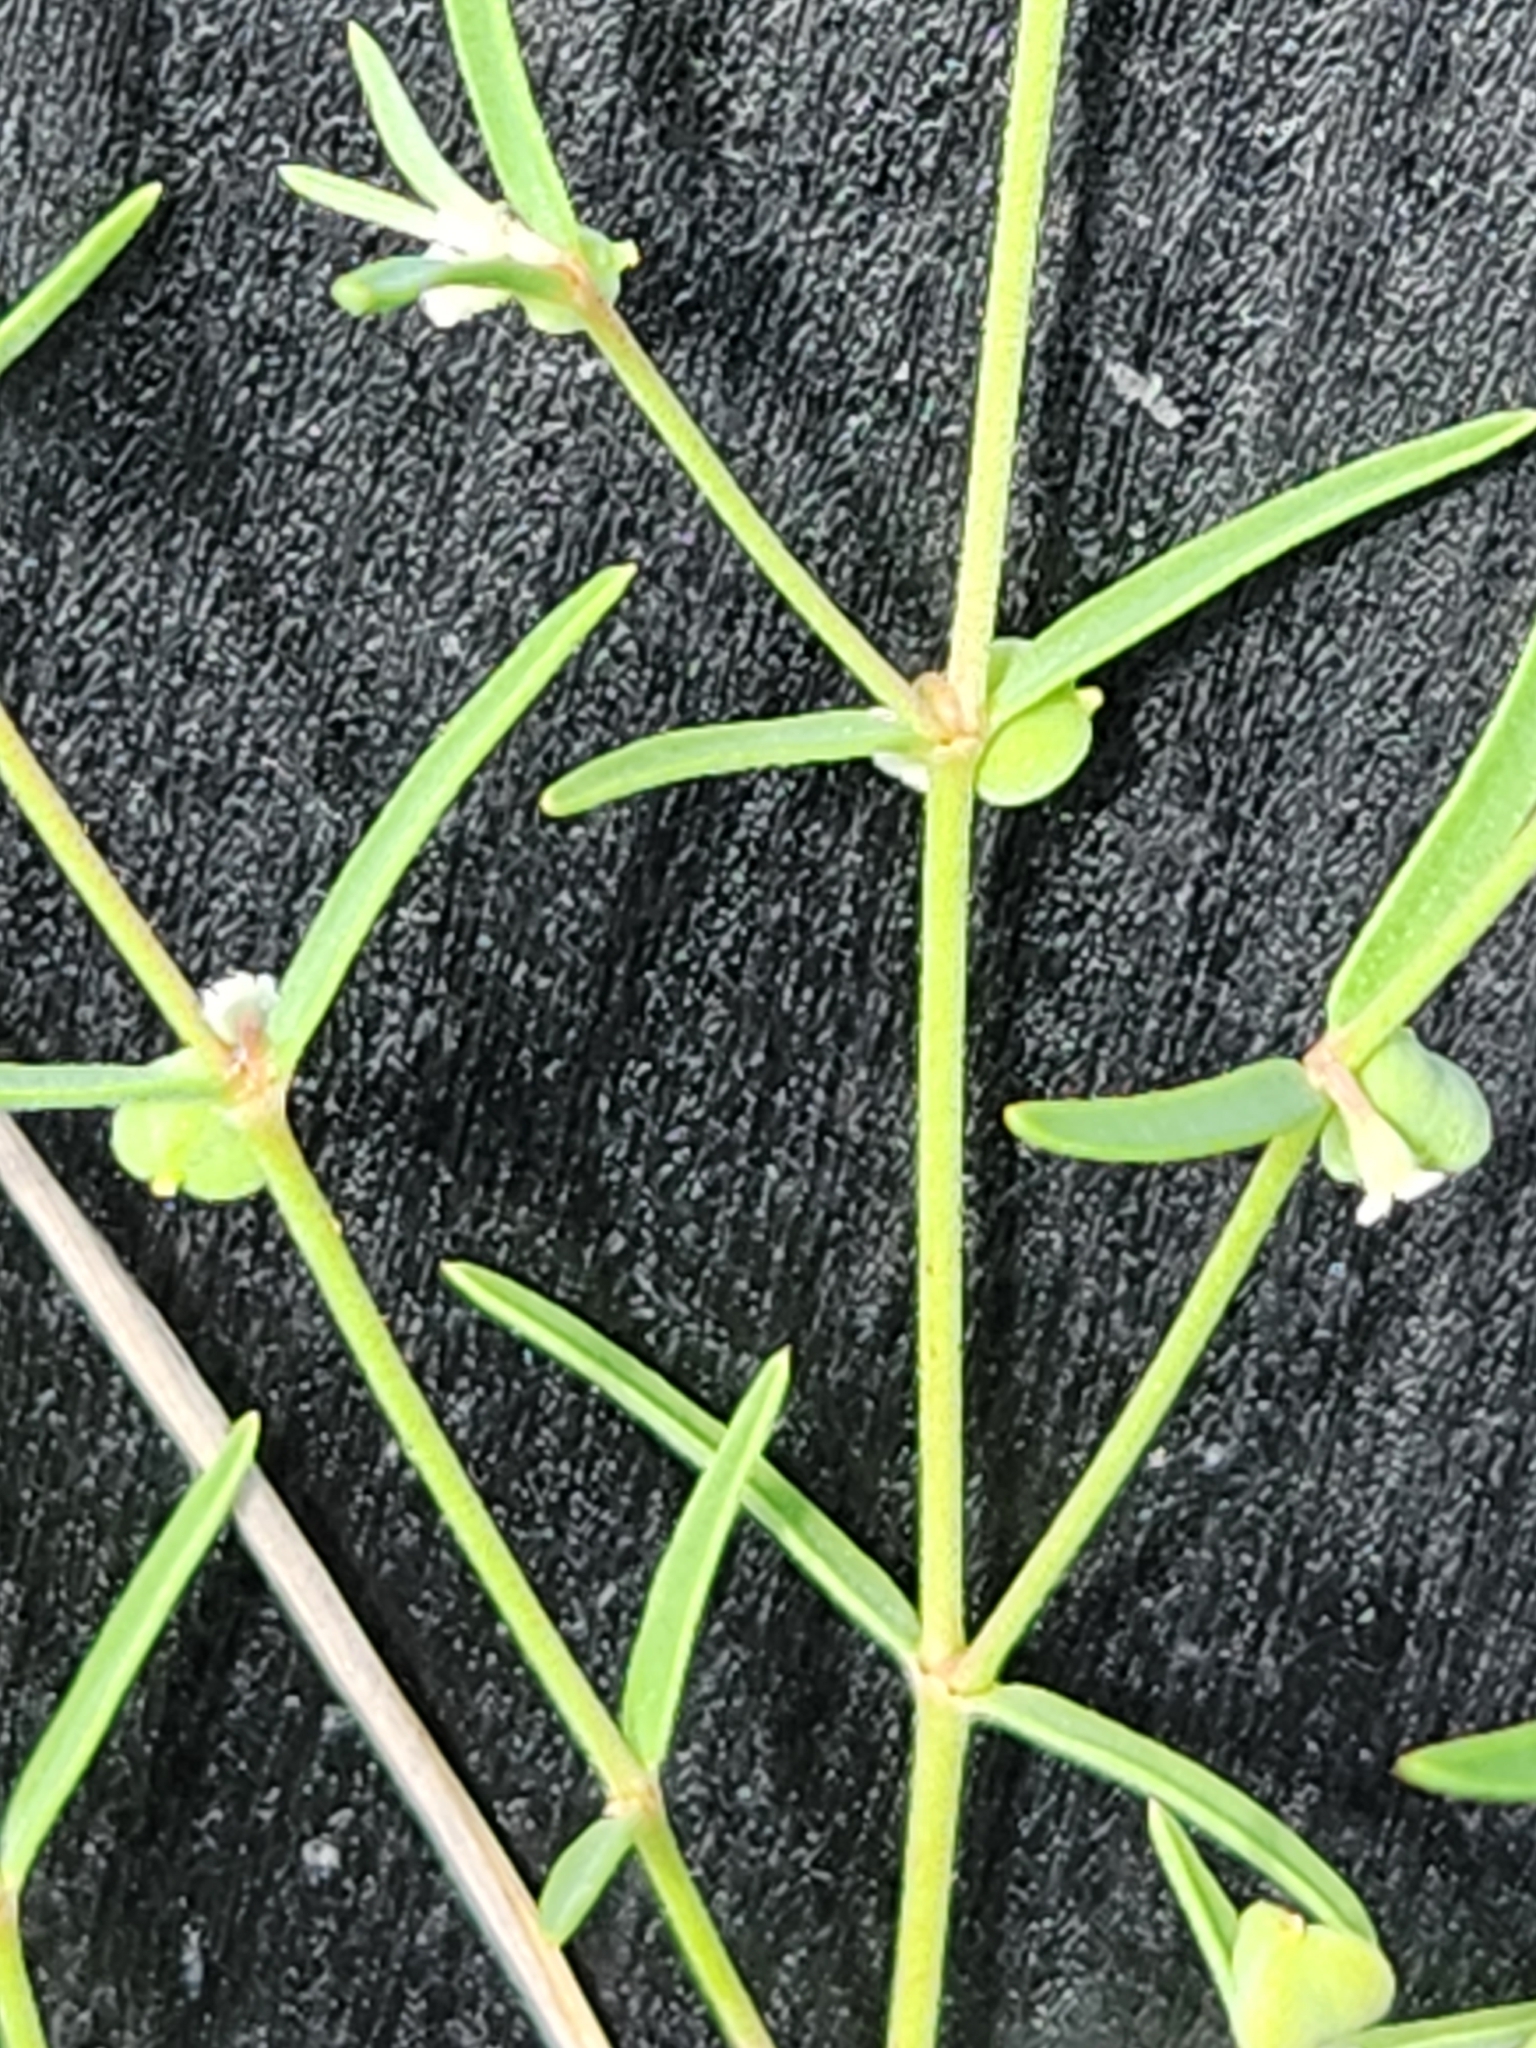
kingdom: Plantae
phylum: Tracheophyta
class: Magnoliopsida
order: Malpighiales
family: Euphorbiaceae
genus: Euphorbia
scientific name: Euphorbia angusta
